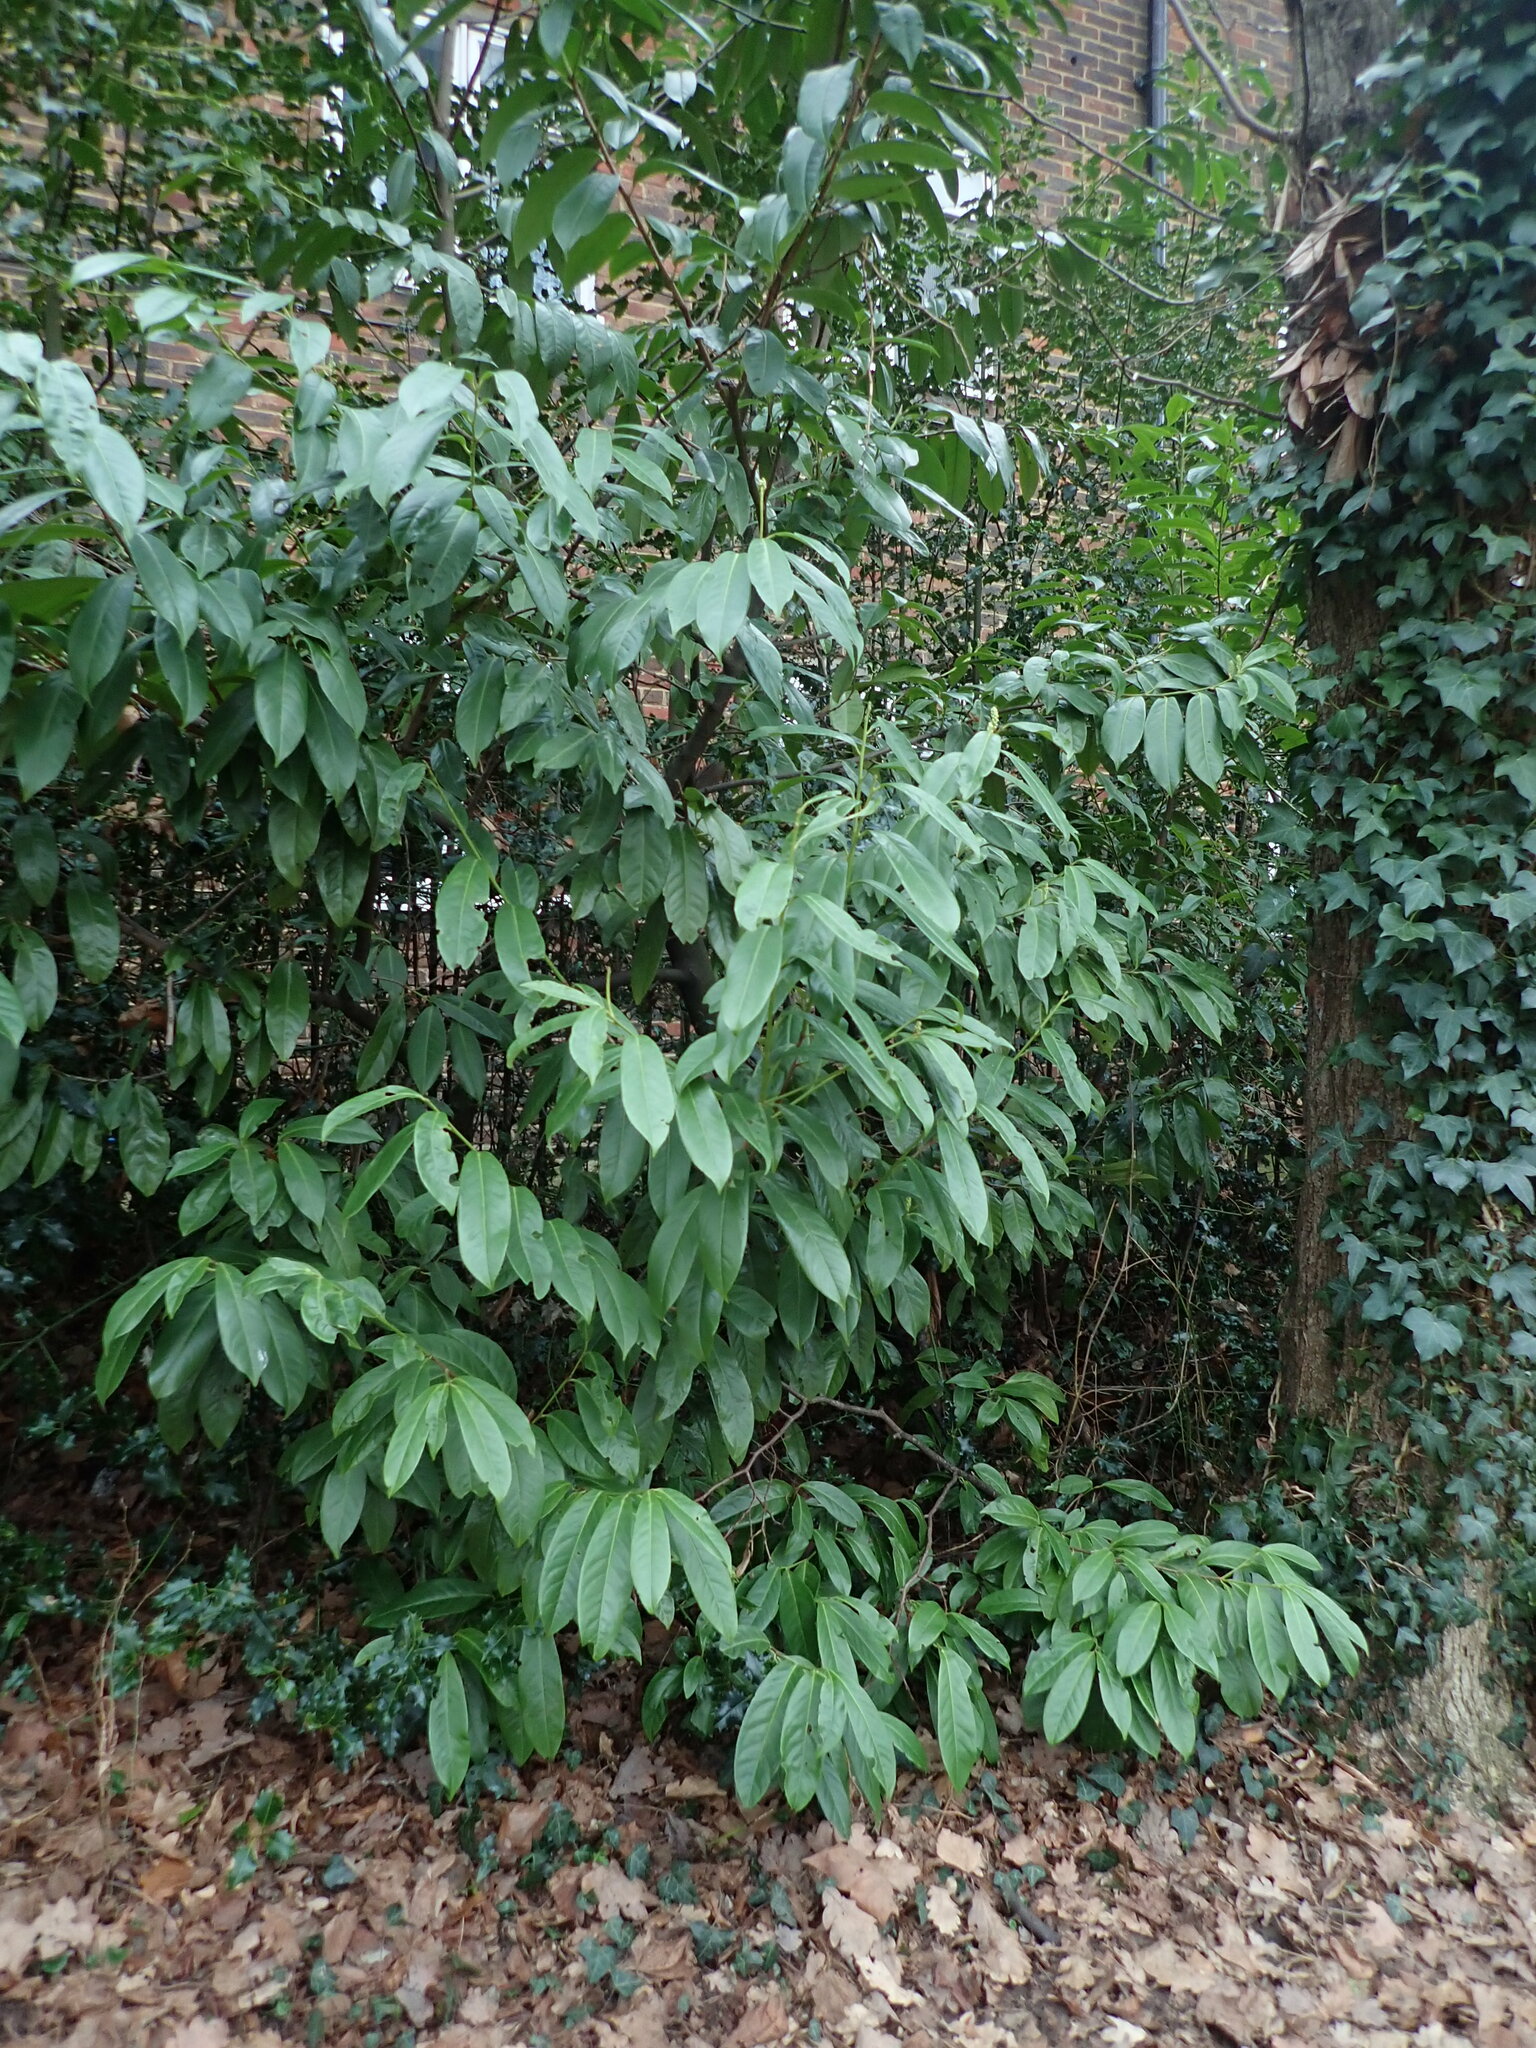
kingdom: Plantae
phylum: Tracheophyta
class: Magnoliopsida
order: Rosales
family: Rosaceae
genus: Prunus
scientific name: Prunus laurocerasus
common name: Cherry laurel
